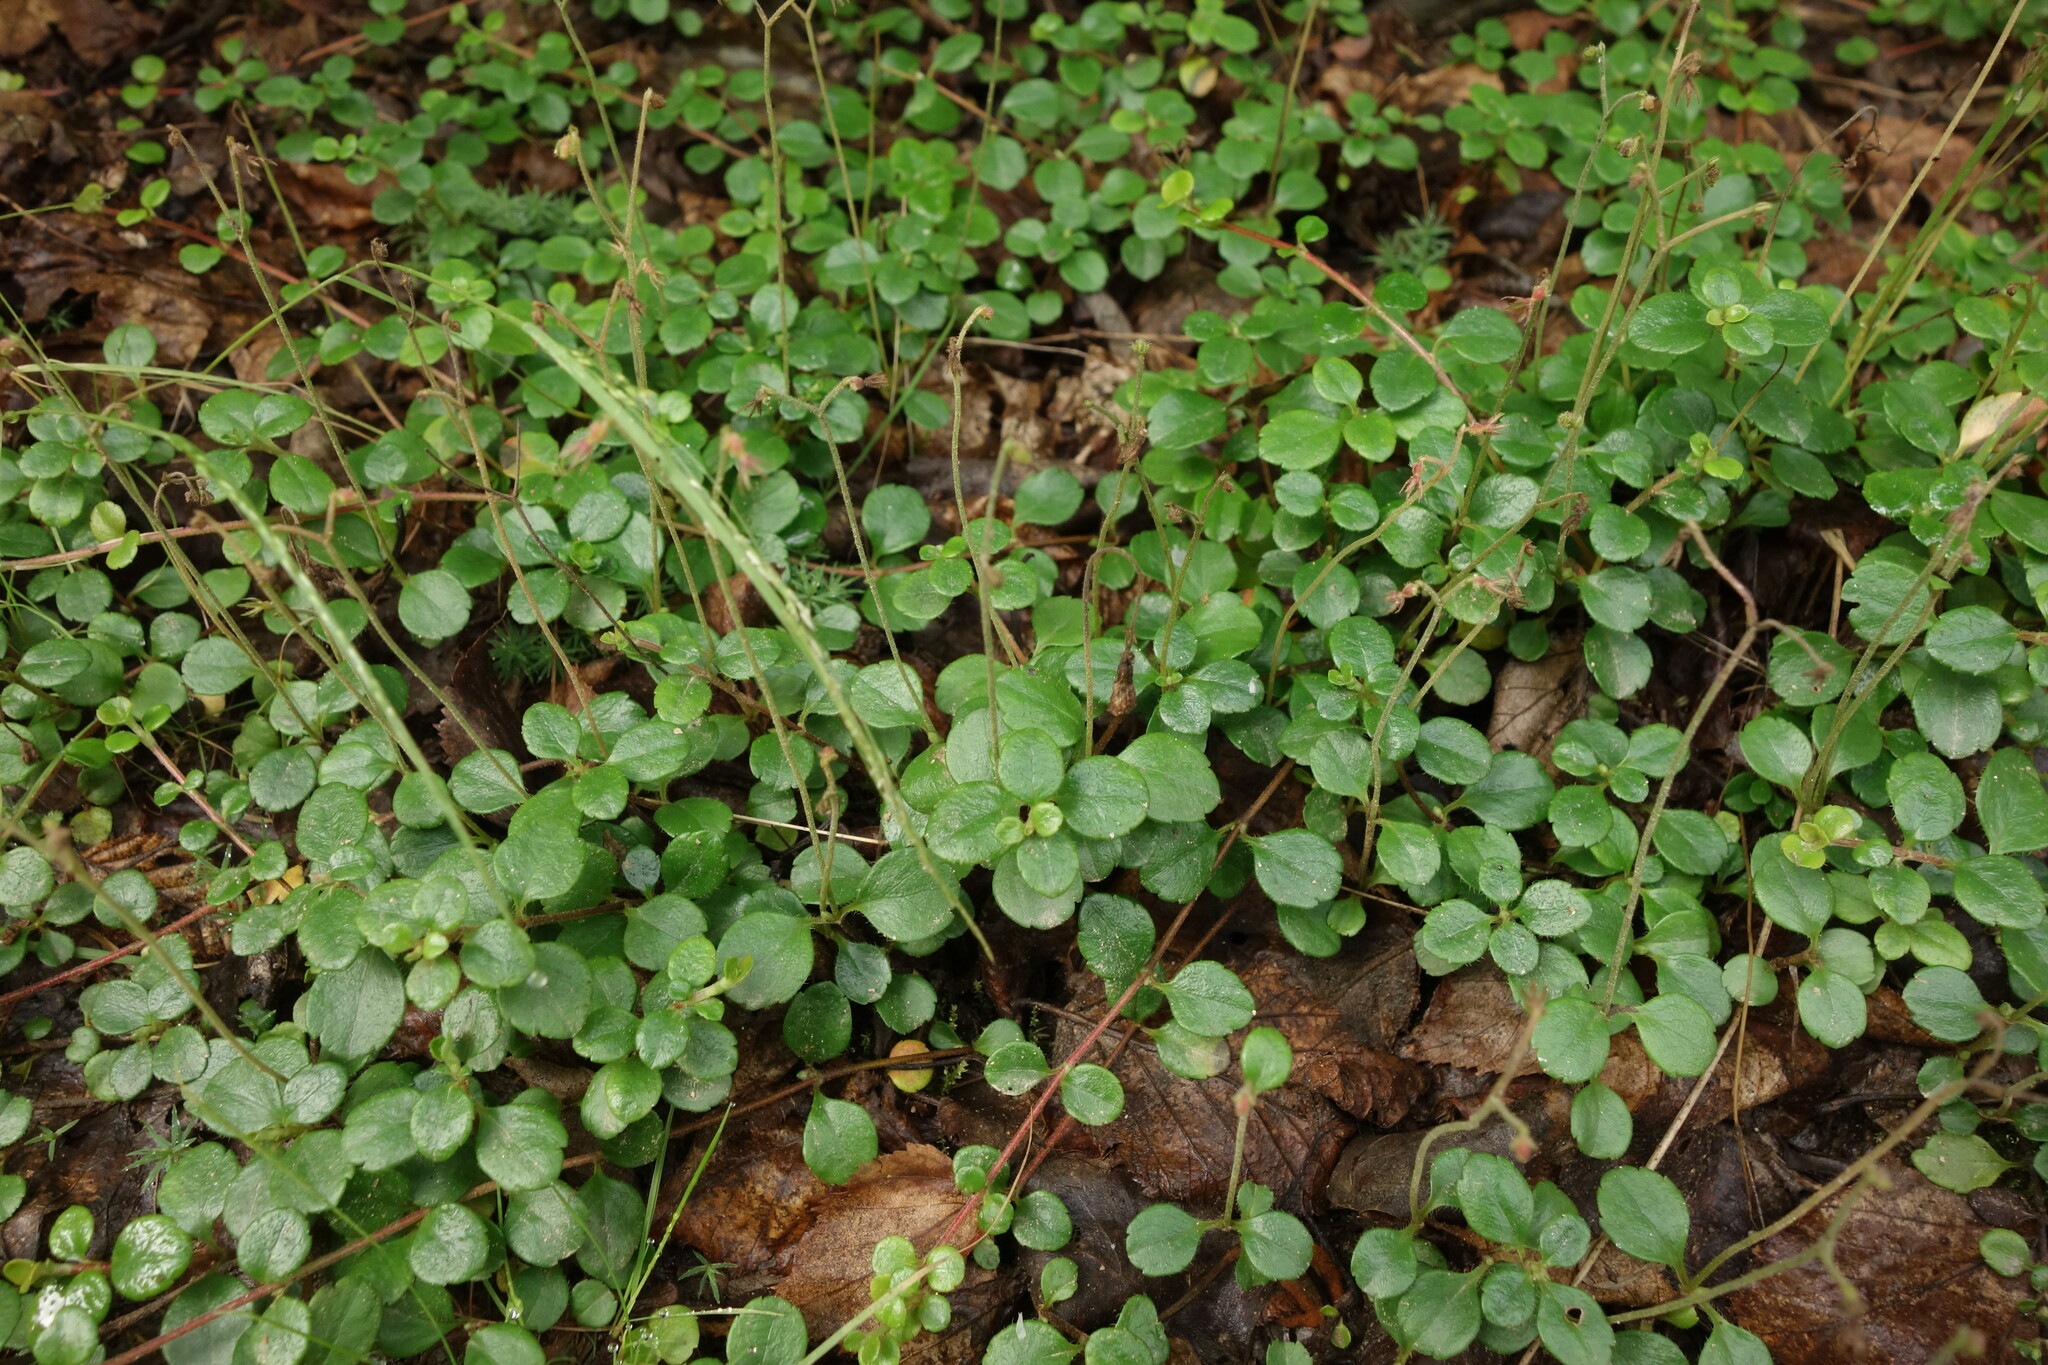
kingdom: Plantae
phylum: Tracheophyta
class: Magnoliopsida
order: Dipsacales
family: Caprifoliaceae
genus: Linnaea
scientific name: Linnaea borealis
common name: Twinflower
